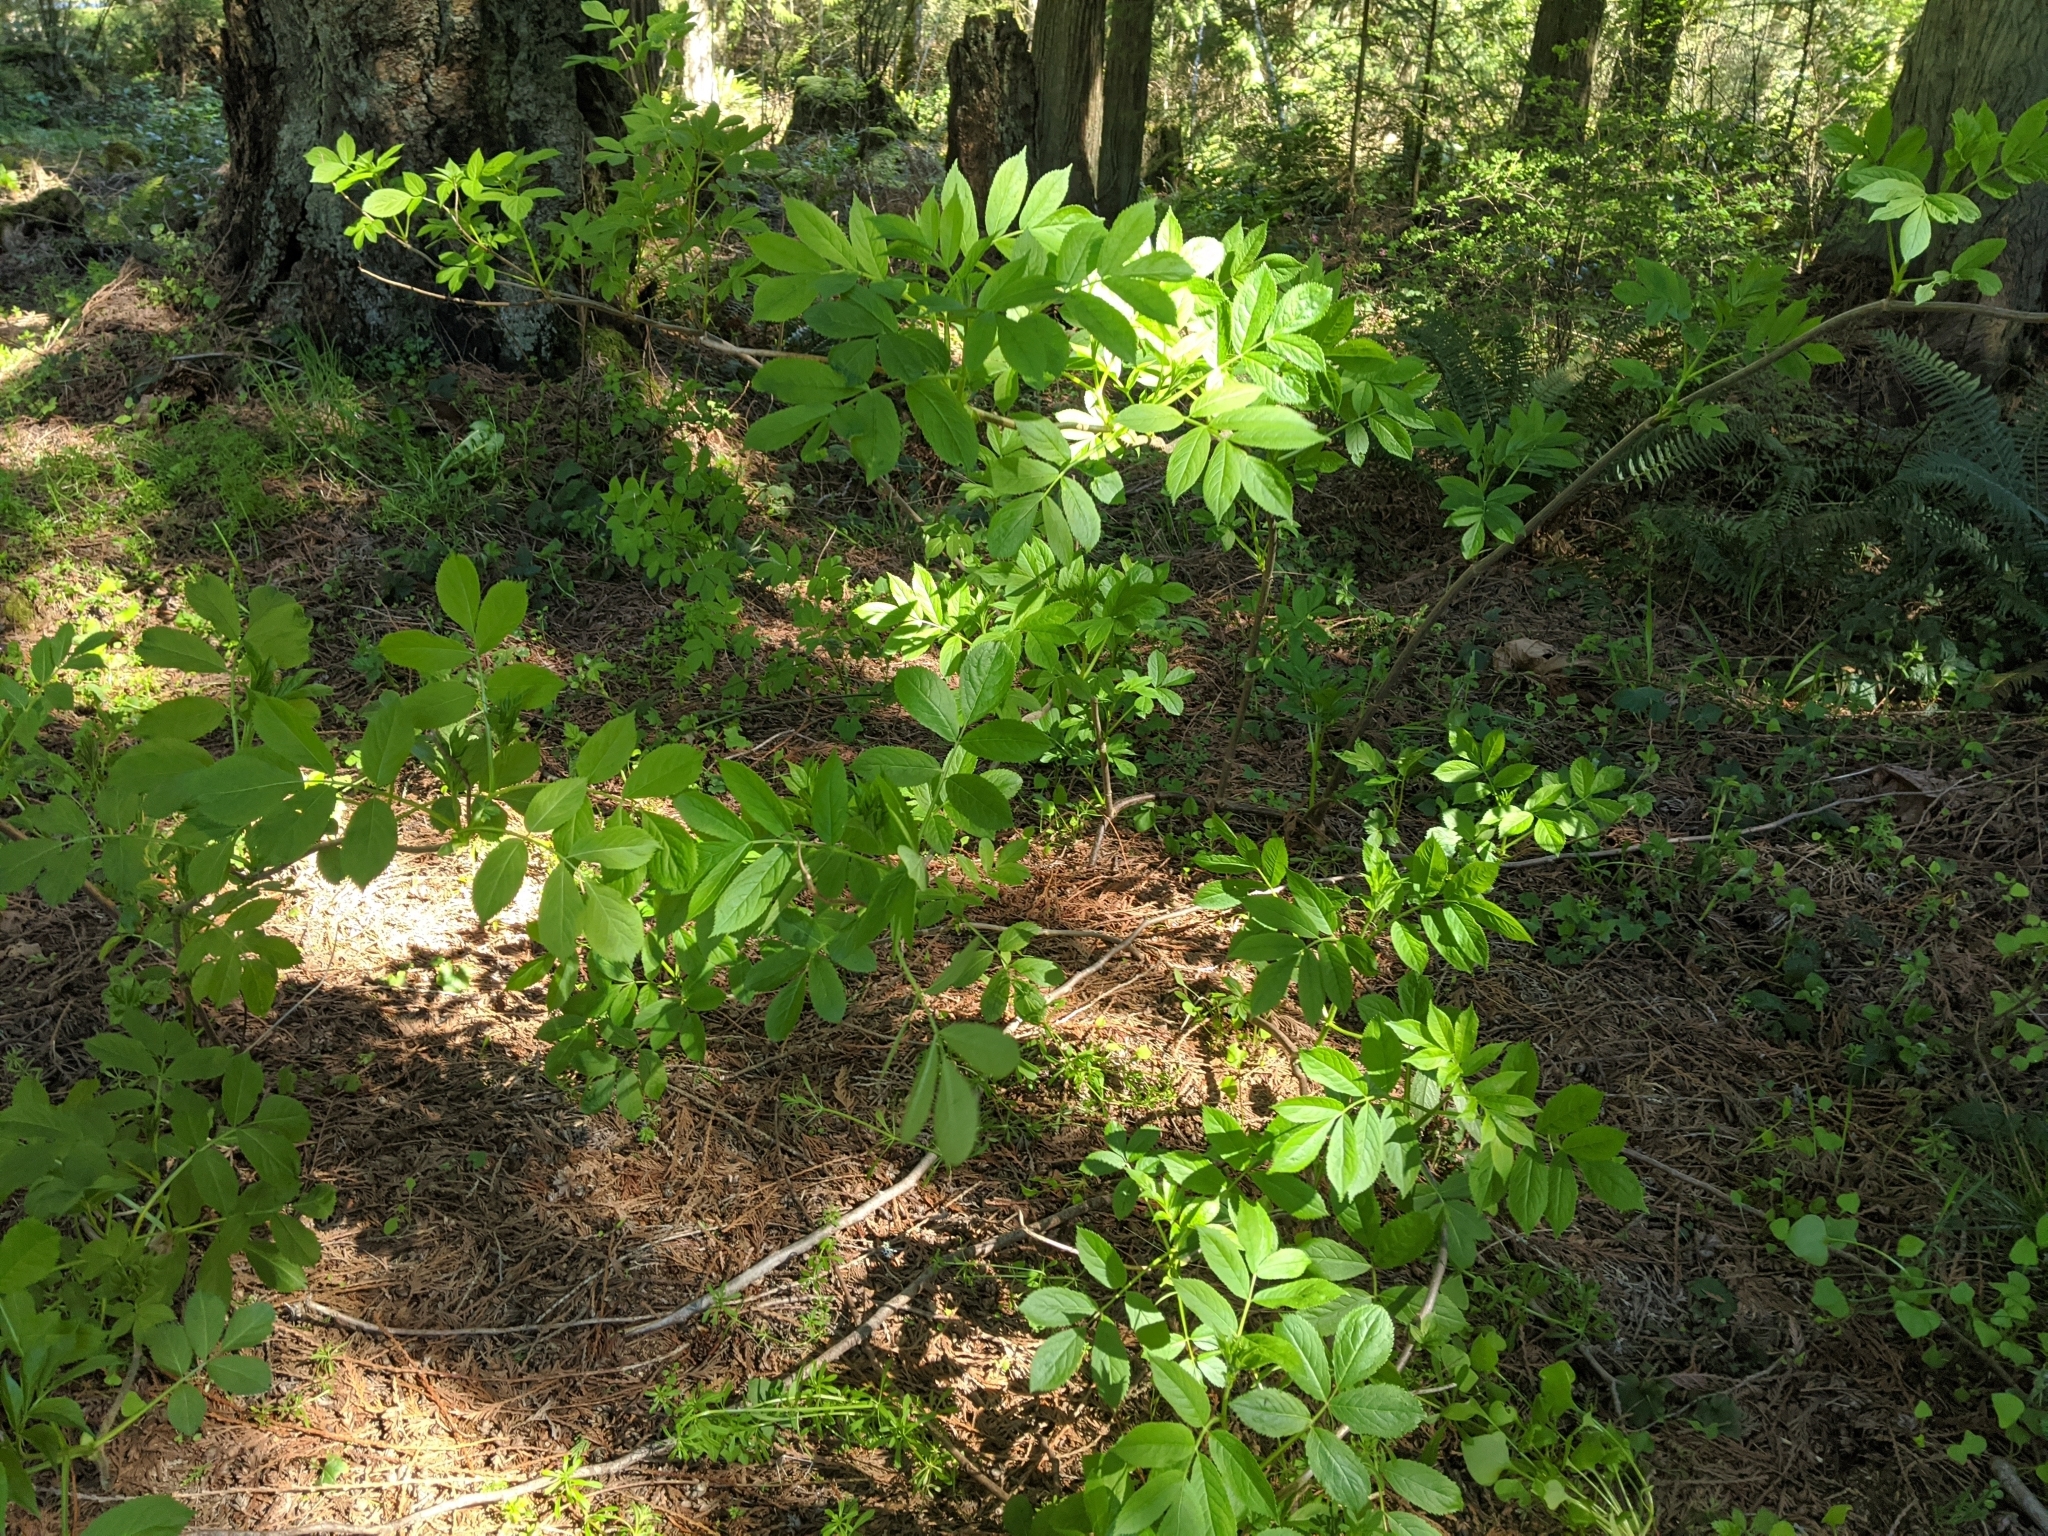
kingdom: Plantae
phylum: Tracheophyta
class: Magnoliopsida
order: Dipsacales
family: Viburnaceae
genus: Sambucus
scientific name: Sambucus racemosa
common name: Red-berried elder
